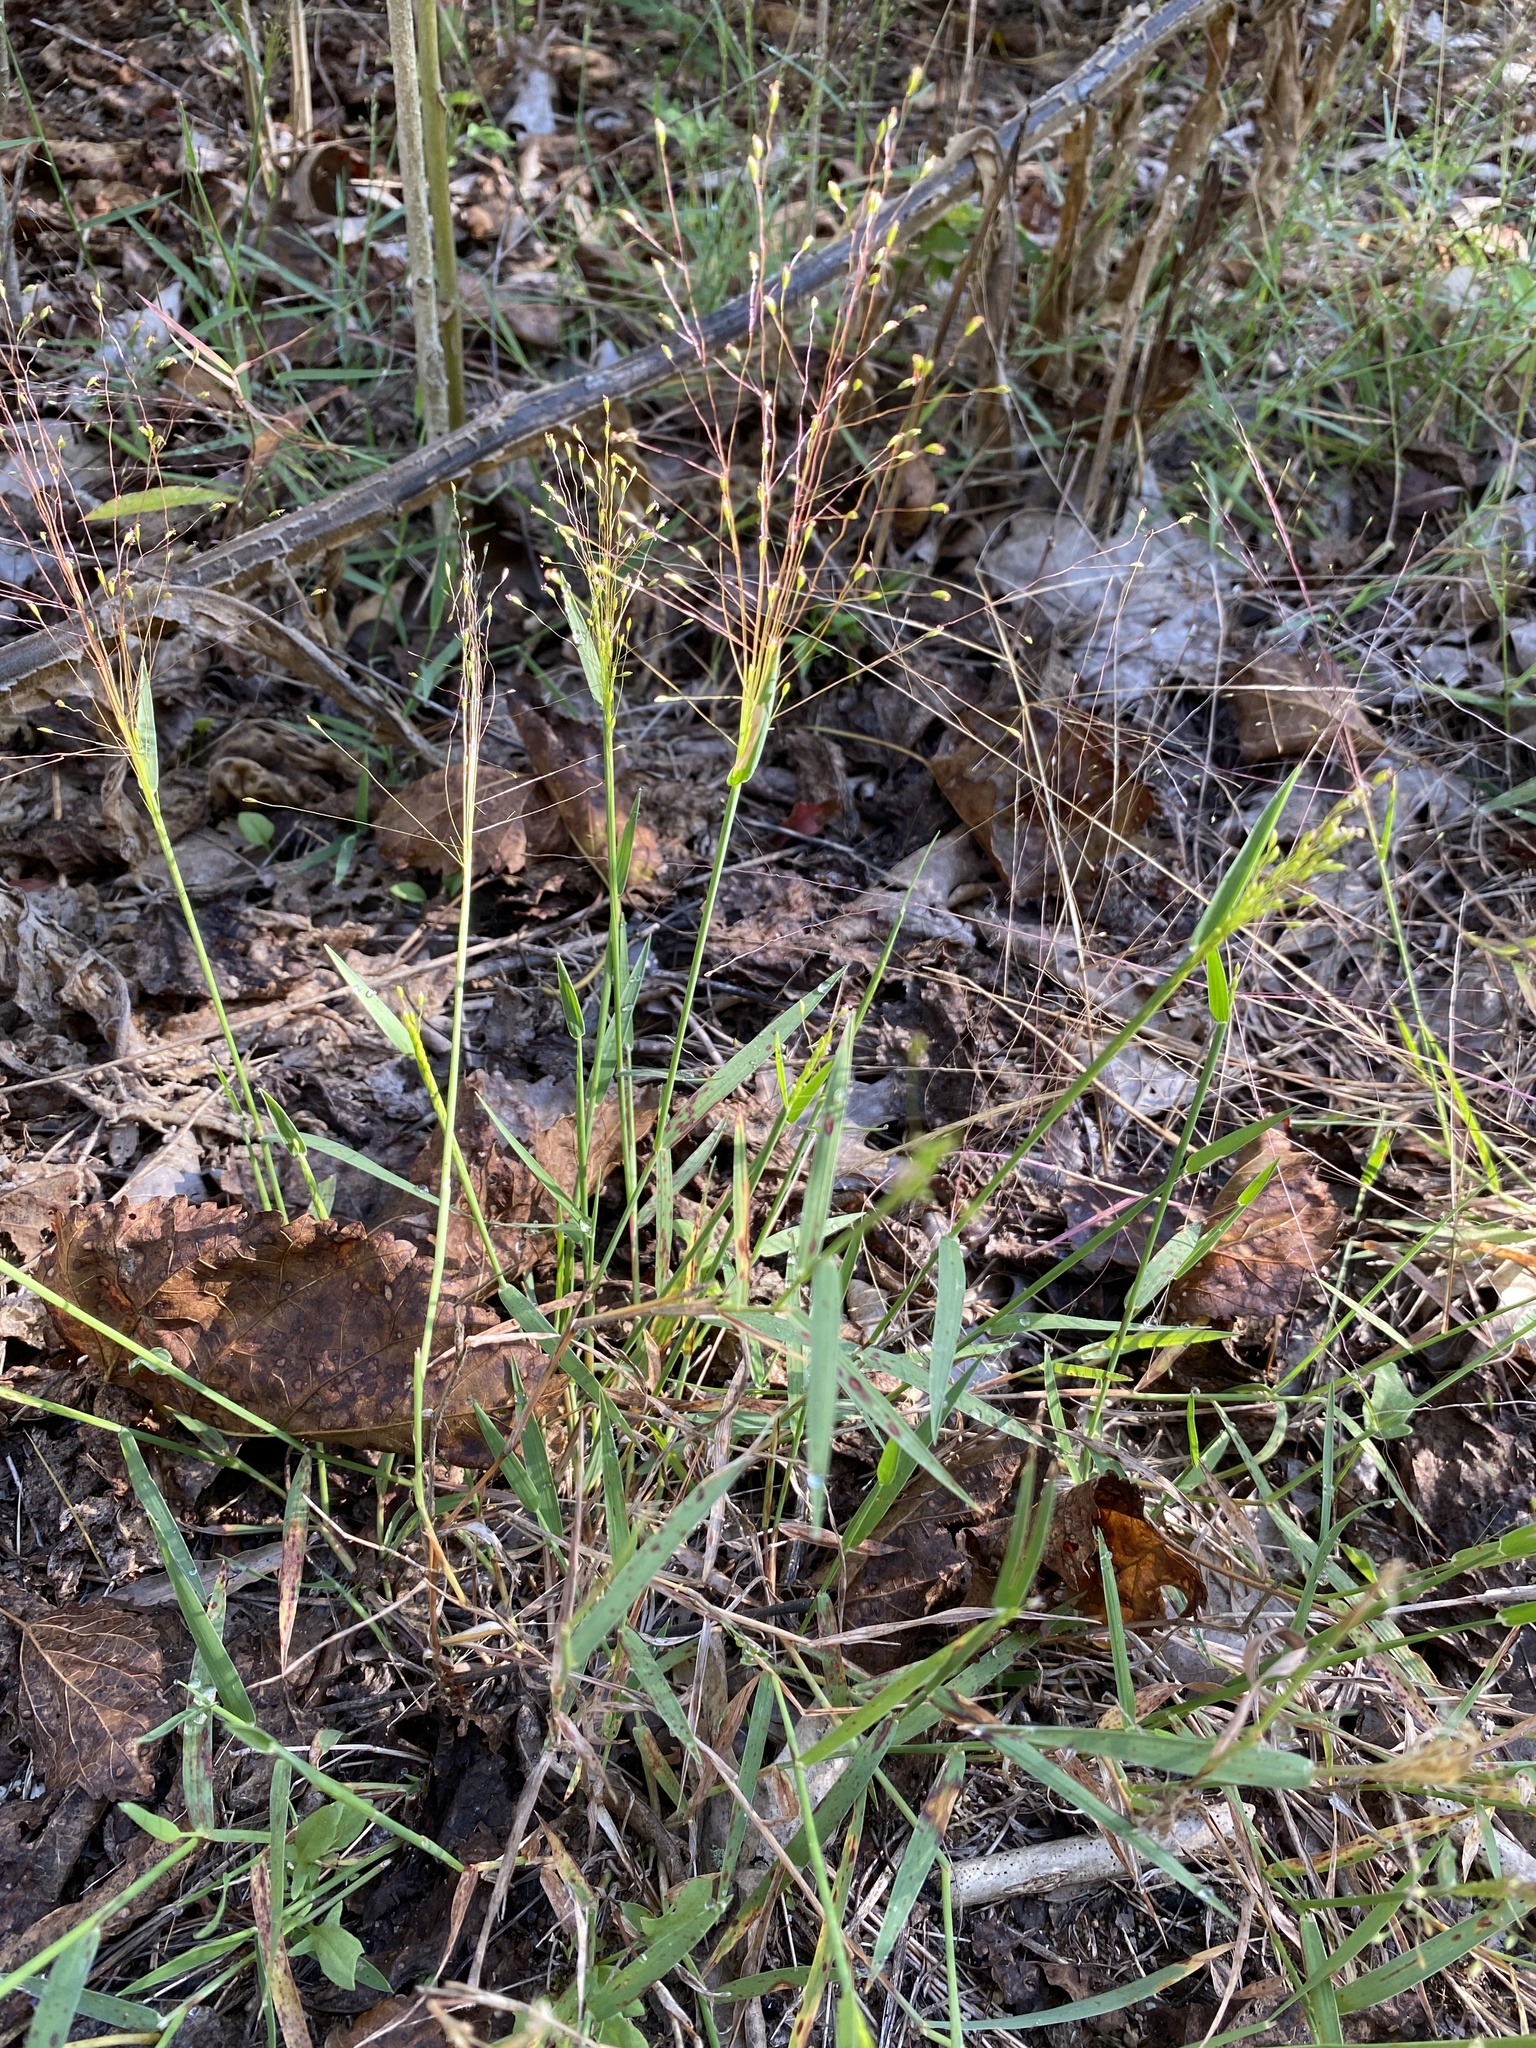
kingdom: Plantae
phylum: Tracheophyta
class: Liliopsida
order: Poales
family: Poaceae
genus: Digitaria
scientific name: Digitaria cognata
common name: Fall witchgrass
